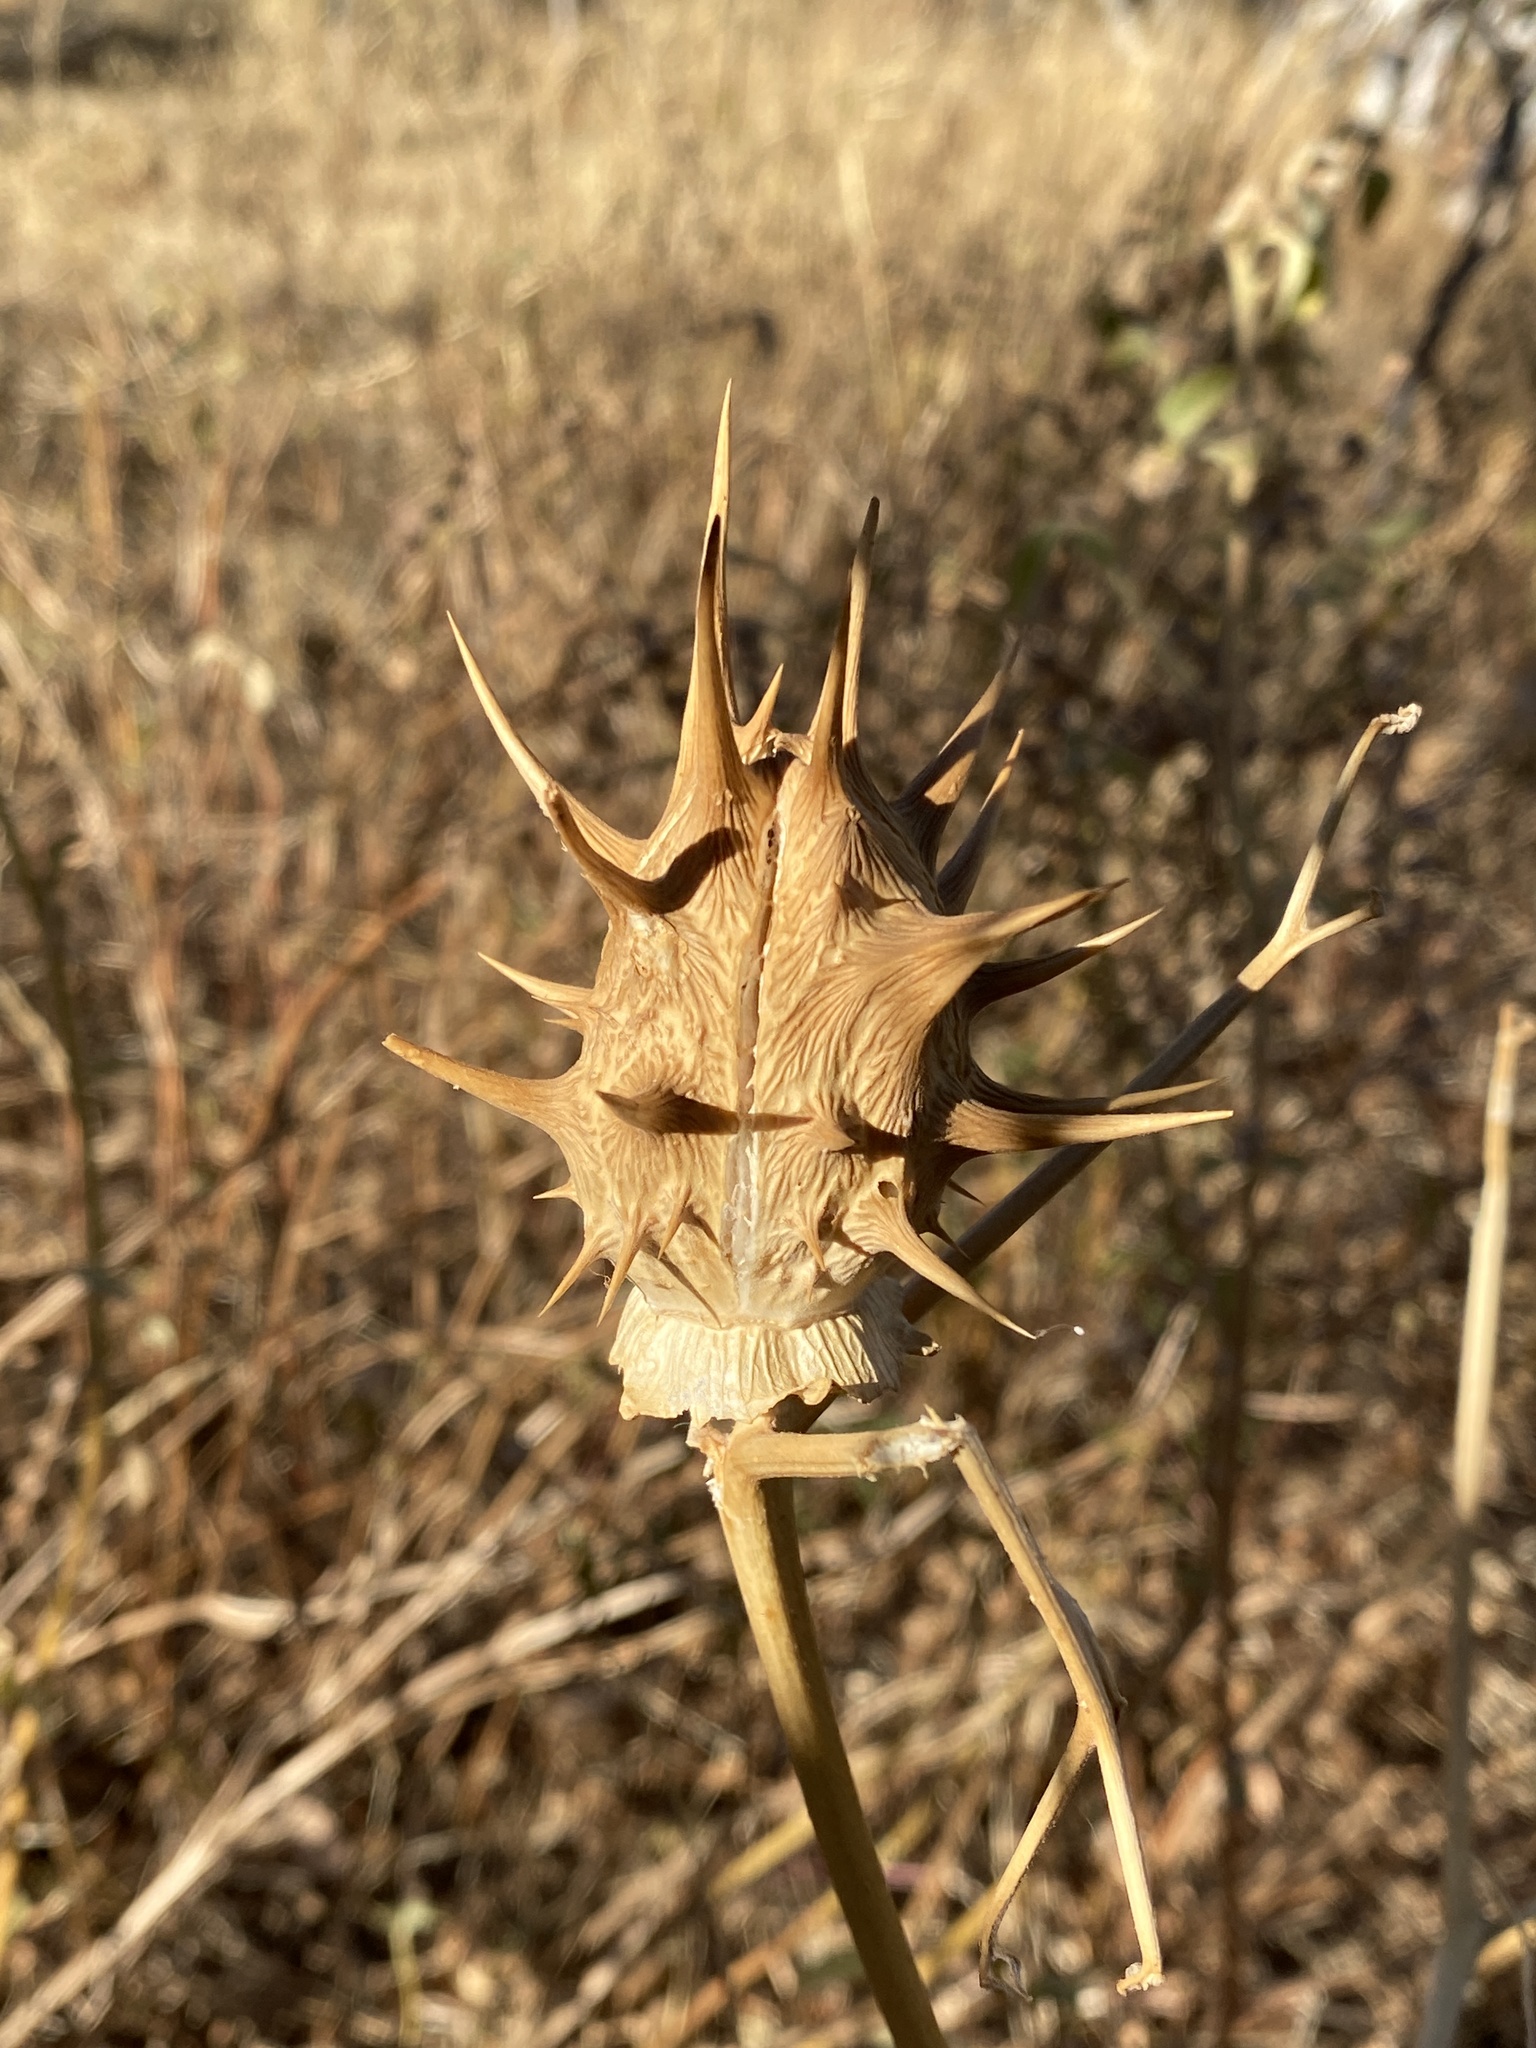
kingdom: Plantae
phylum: Tracheophyta
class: Magnoliopsida
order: Solanales
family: Solanaceae
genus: Datura
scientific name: Datura ferox
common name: Angel's-trumpets
